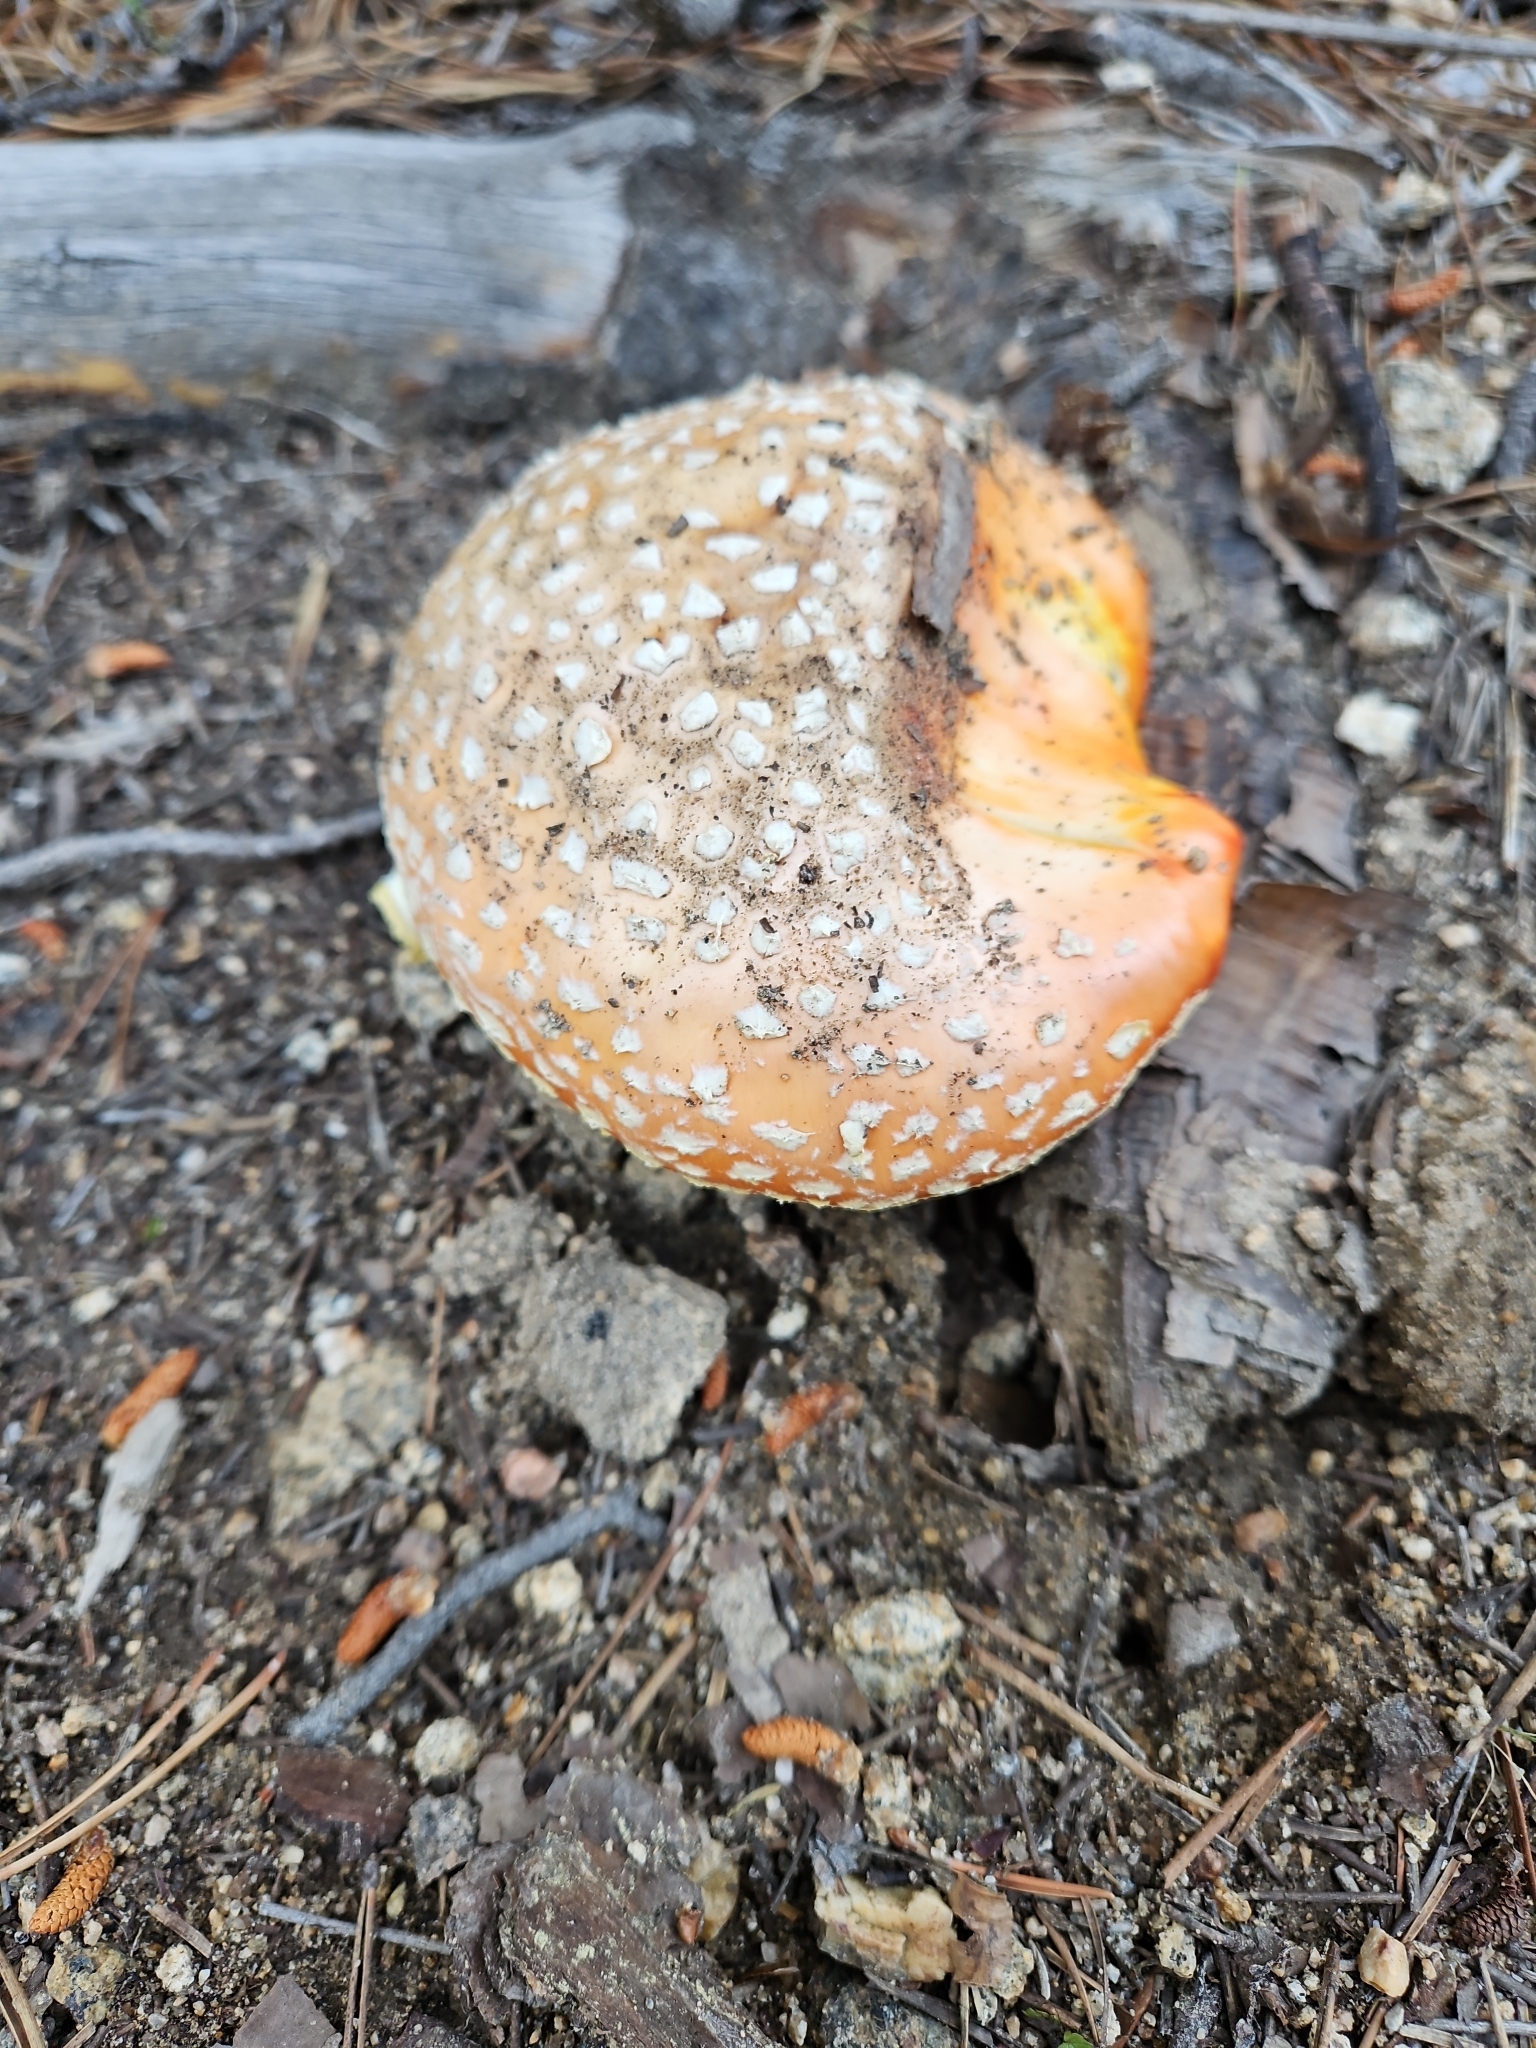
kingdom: Fungi
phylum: Basidiomycota
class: Agaricomycetes
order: Agaricales
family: Amanitaceae
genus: Amanita
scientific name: Amanita muscaria
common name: Fly agaric
